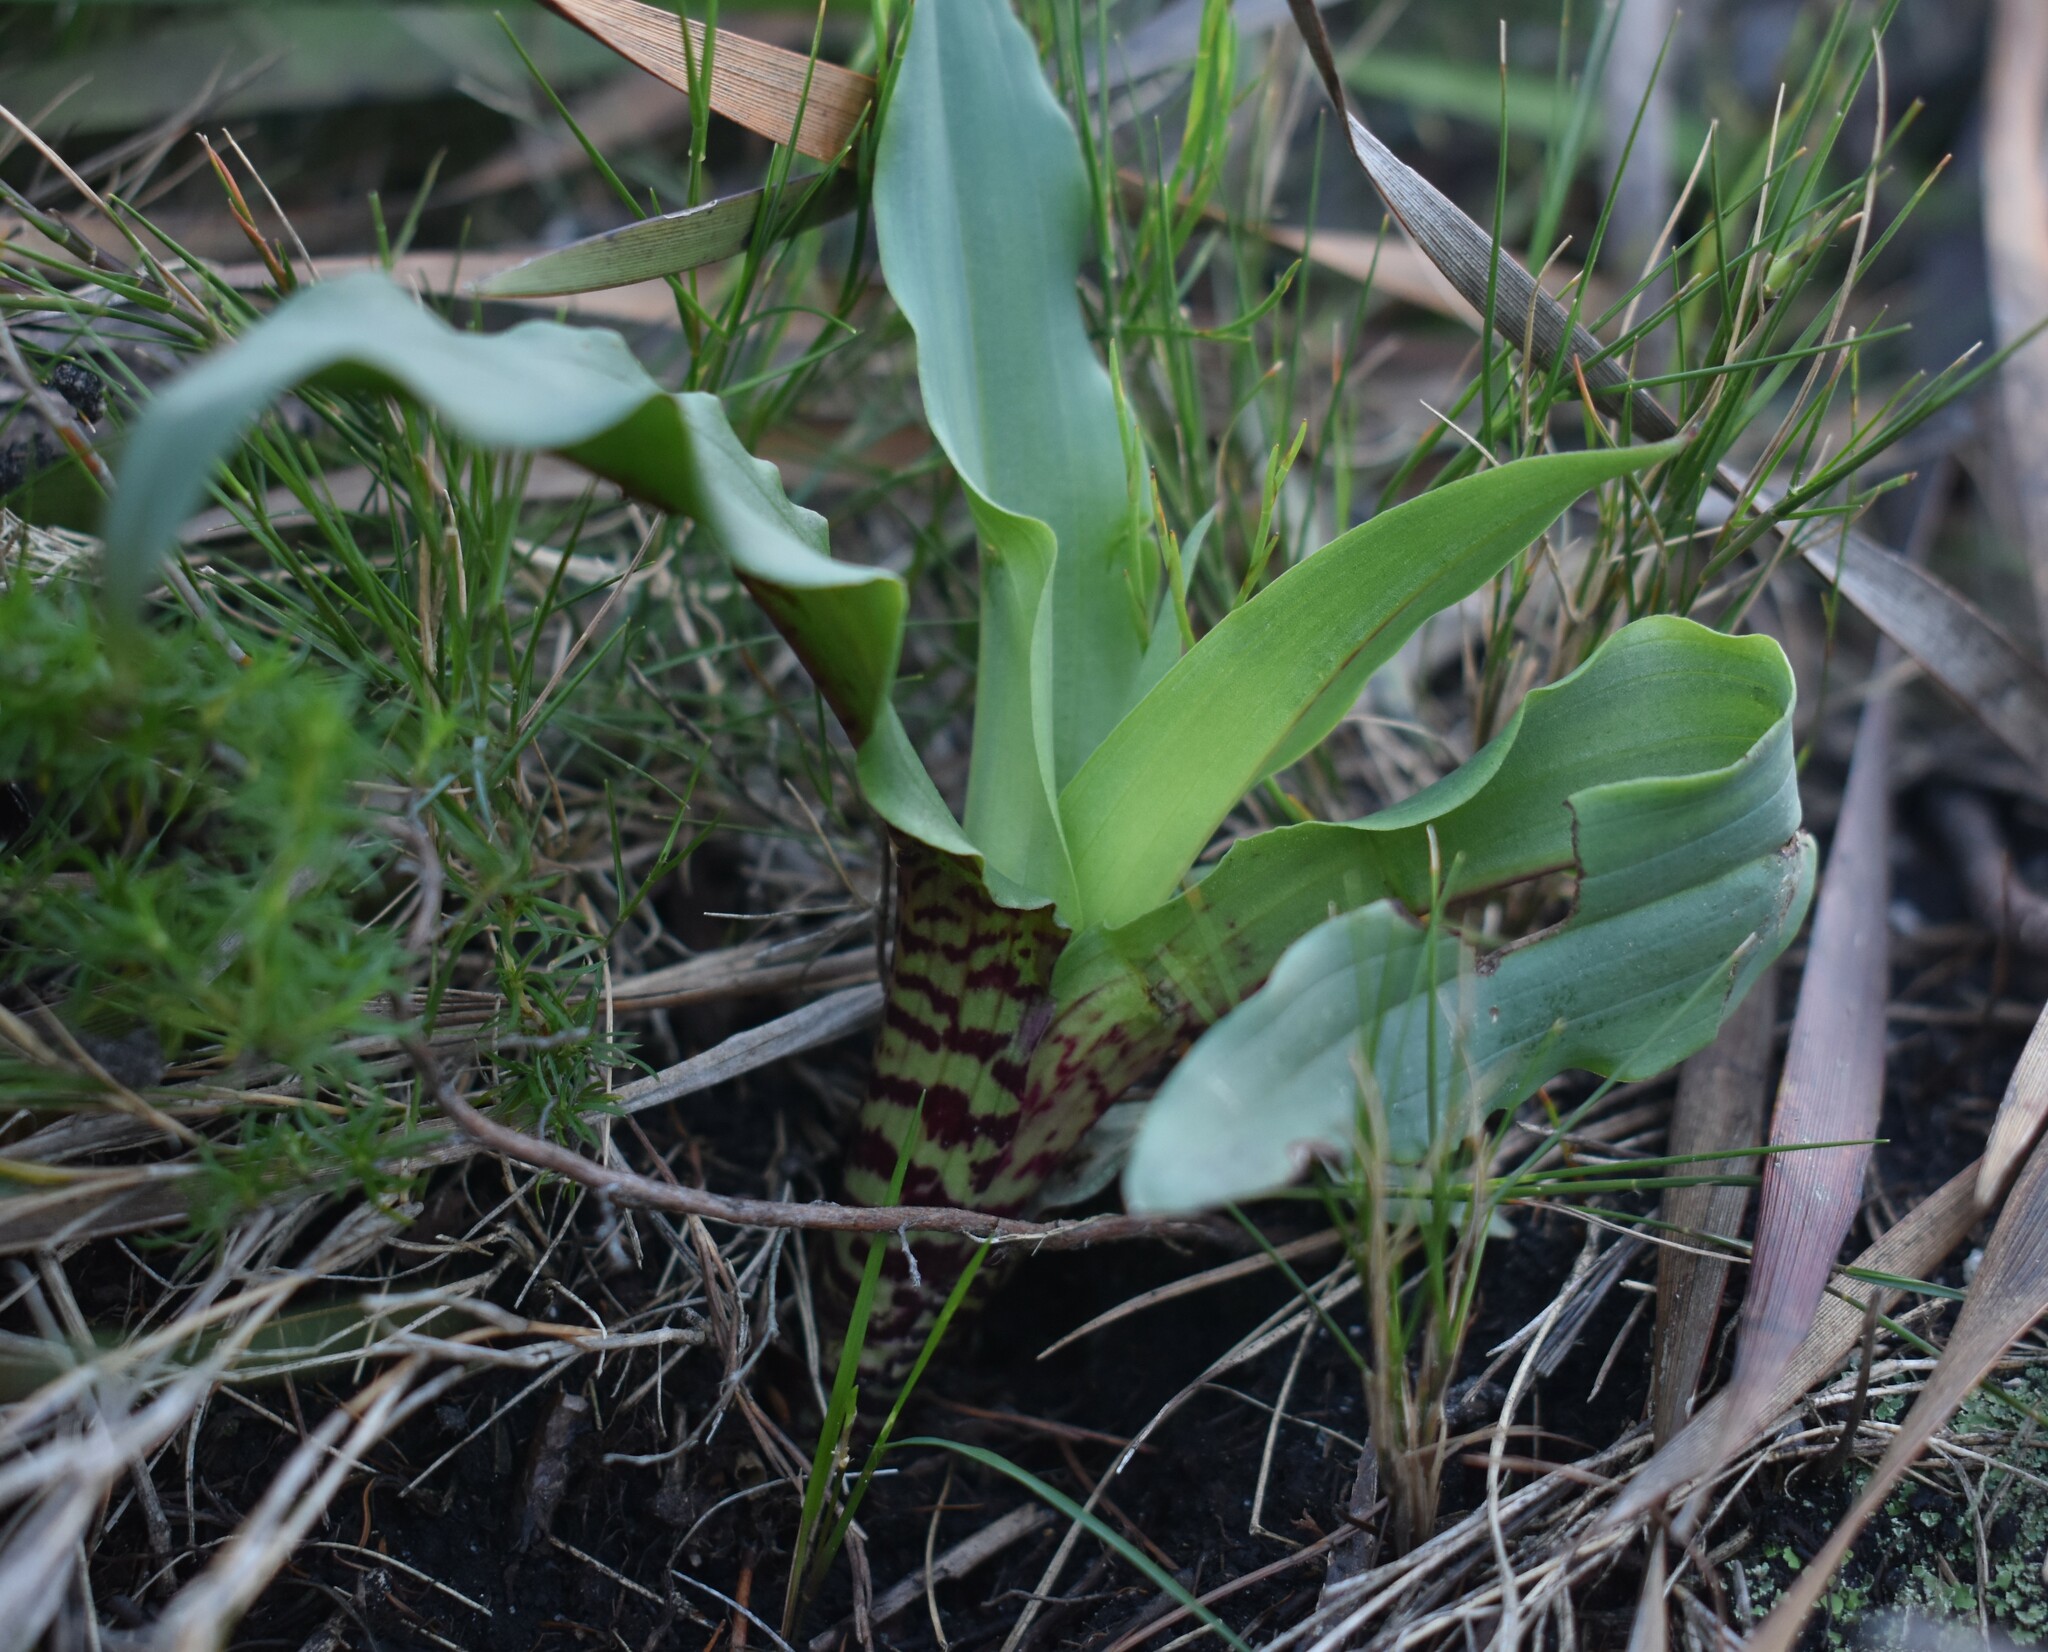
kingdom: Plantae
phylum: Tracheophyta
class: Liliopsida
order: Asparagales
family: Orchidaceae
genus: Disa
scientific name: Disa cornuta
